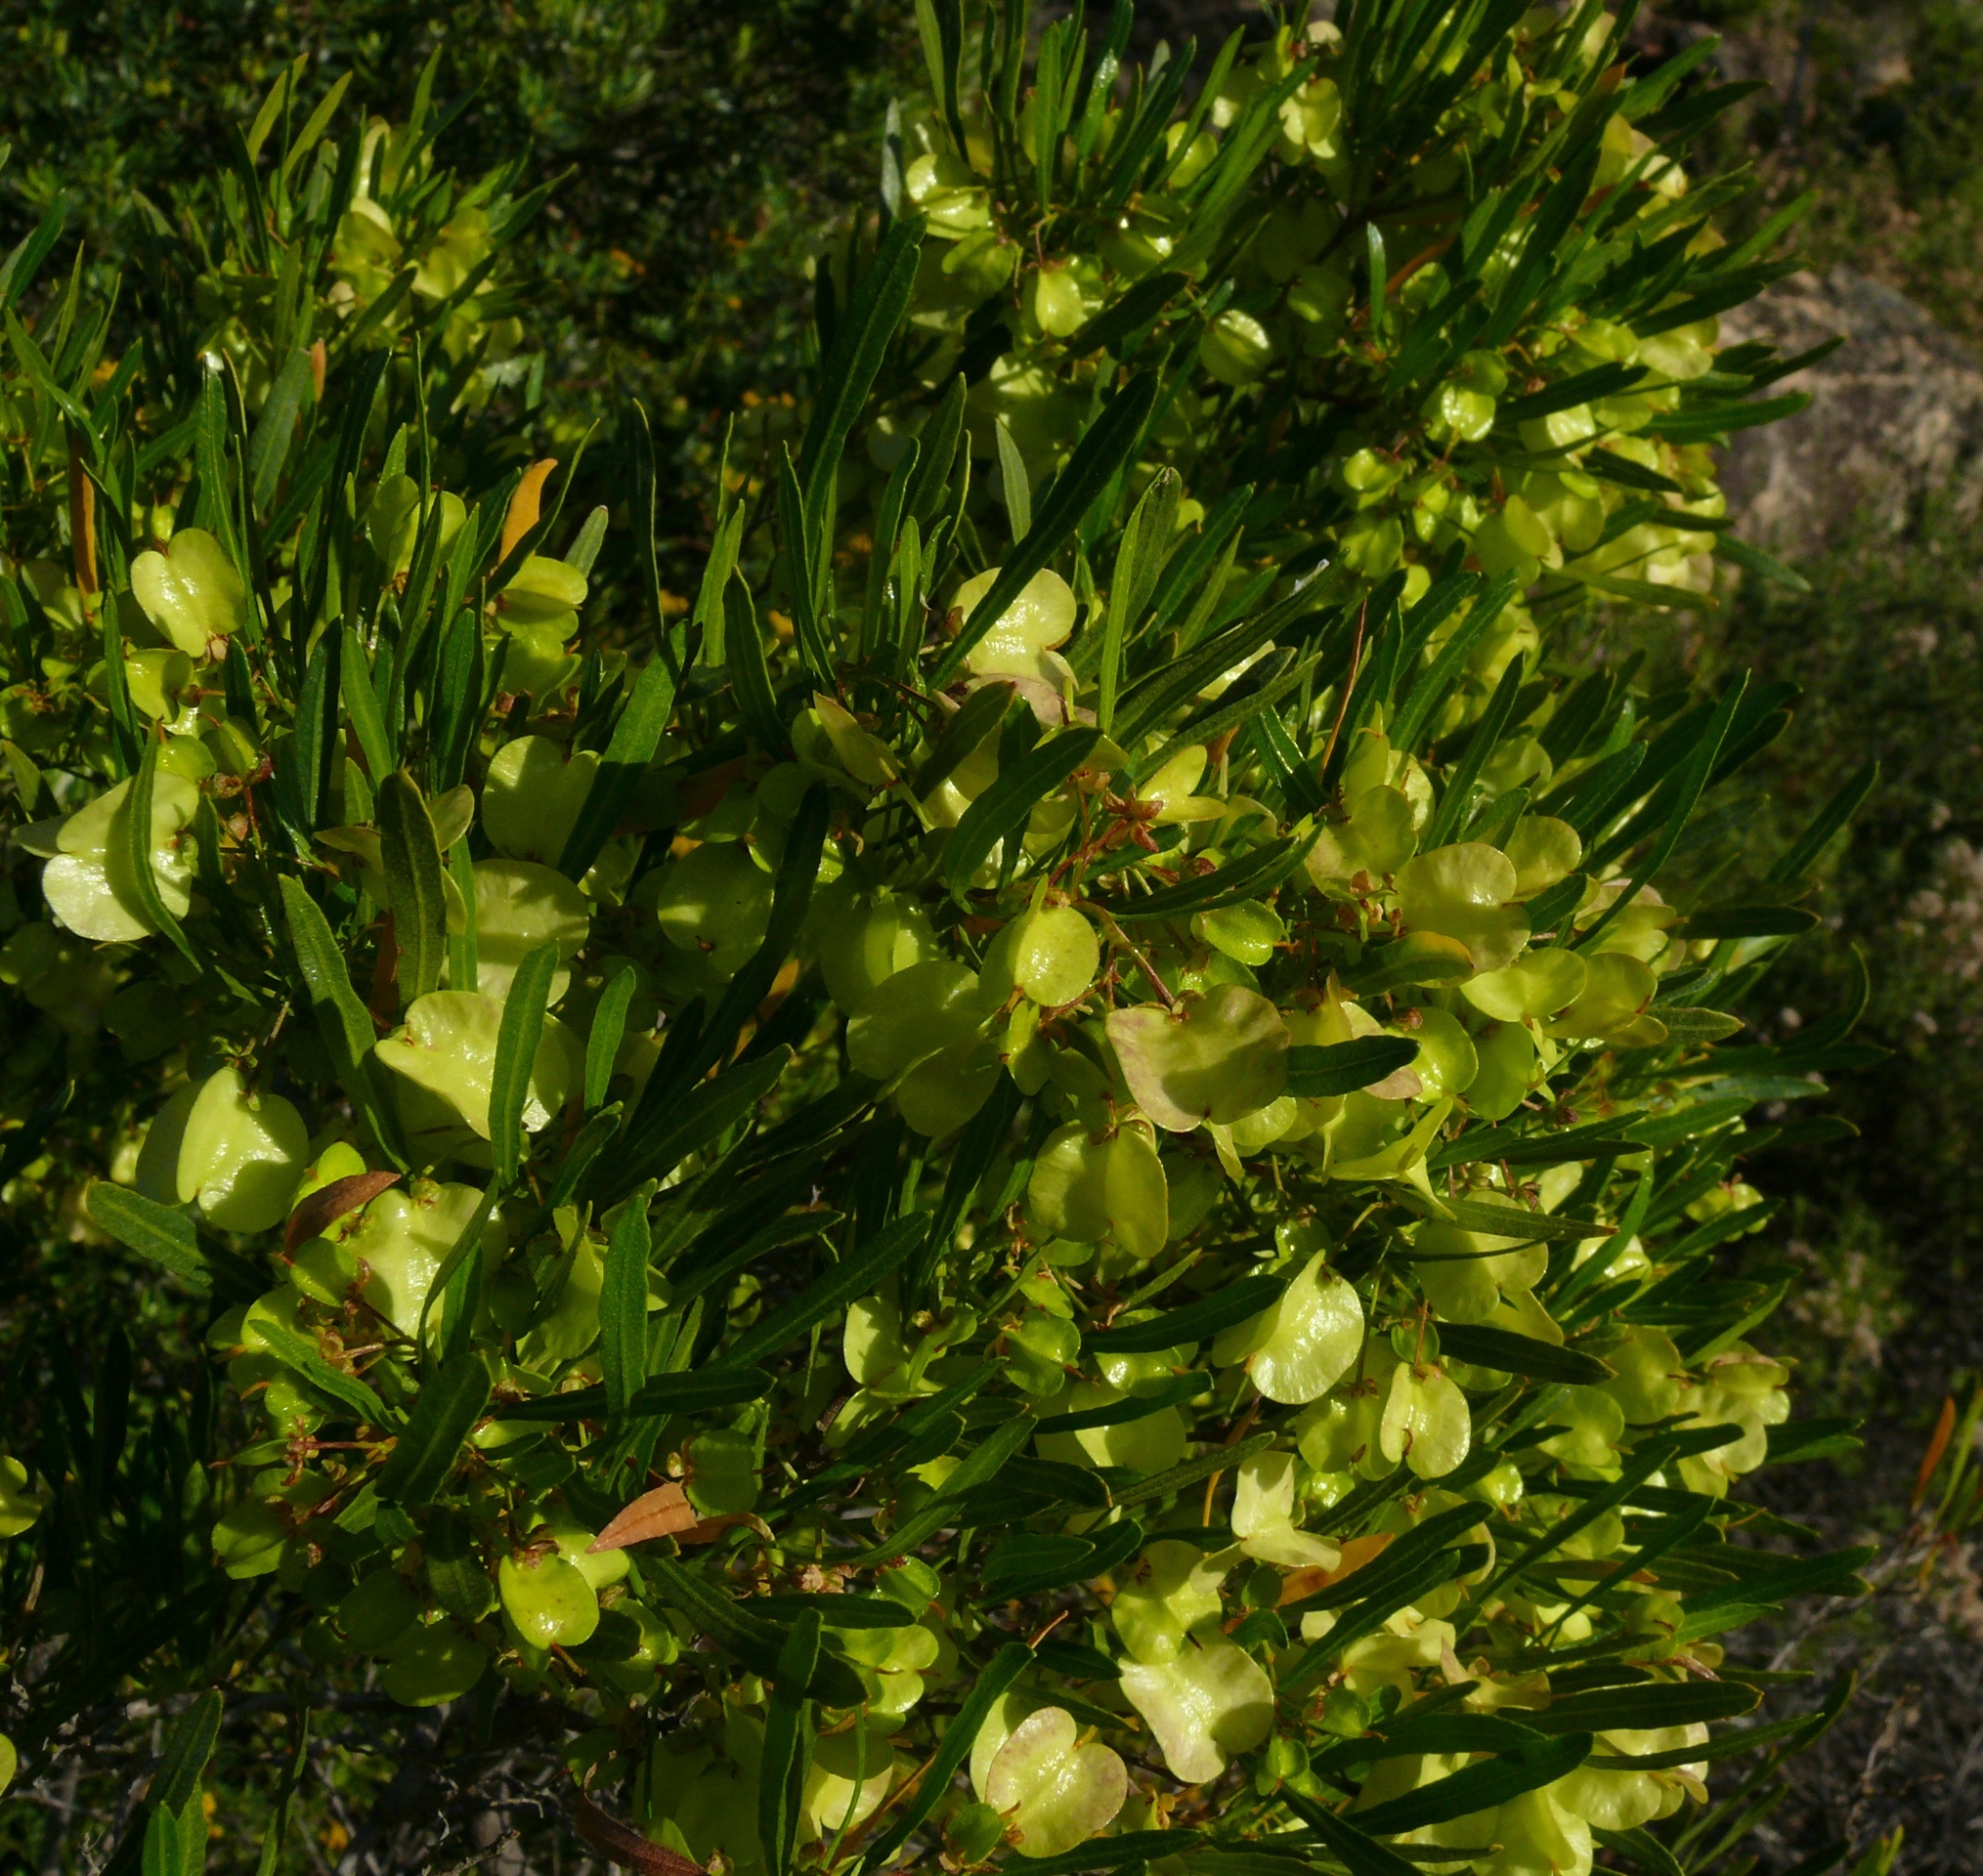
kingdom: Plantae
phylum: Tracheophyta
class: Magnoliopsida
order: Sapindales
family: Sapindaceae
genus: Dodonaea
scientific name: Dodonaea viscosa
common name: Hopbush
